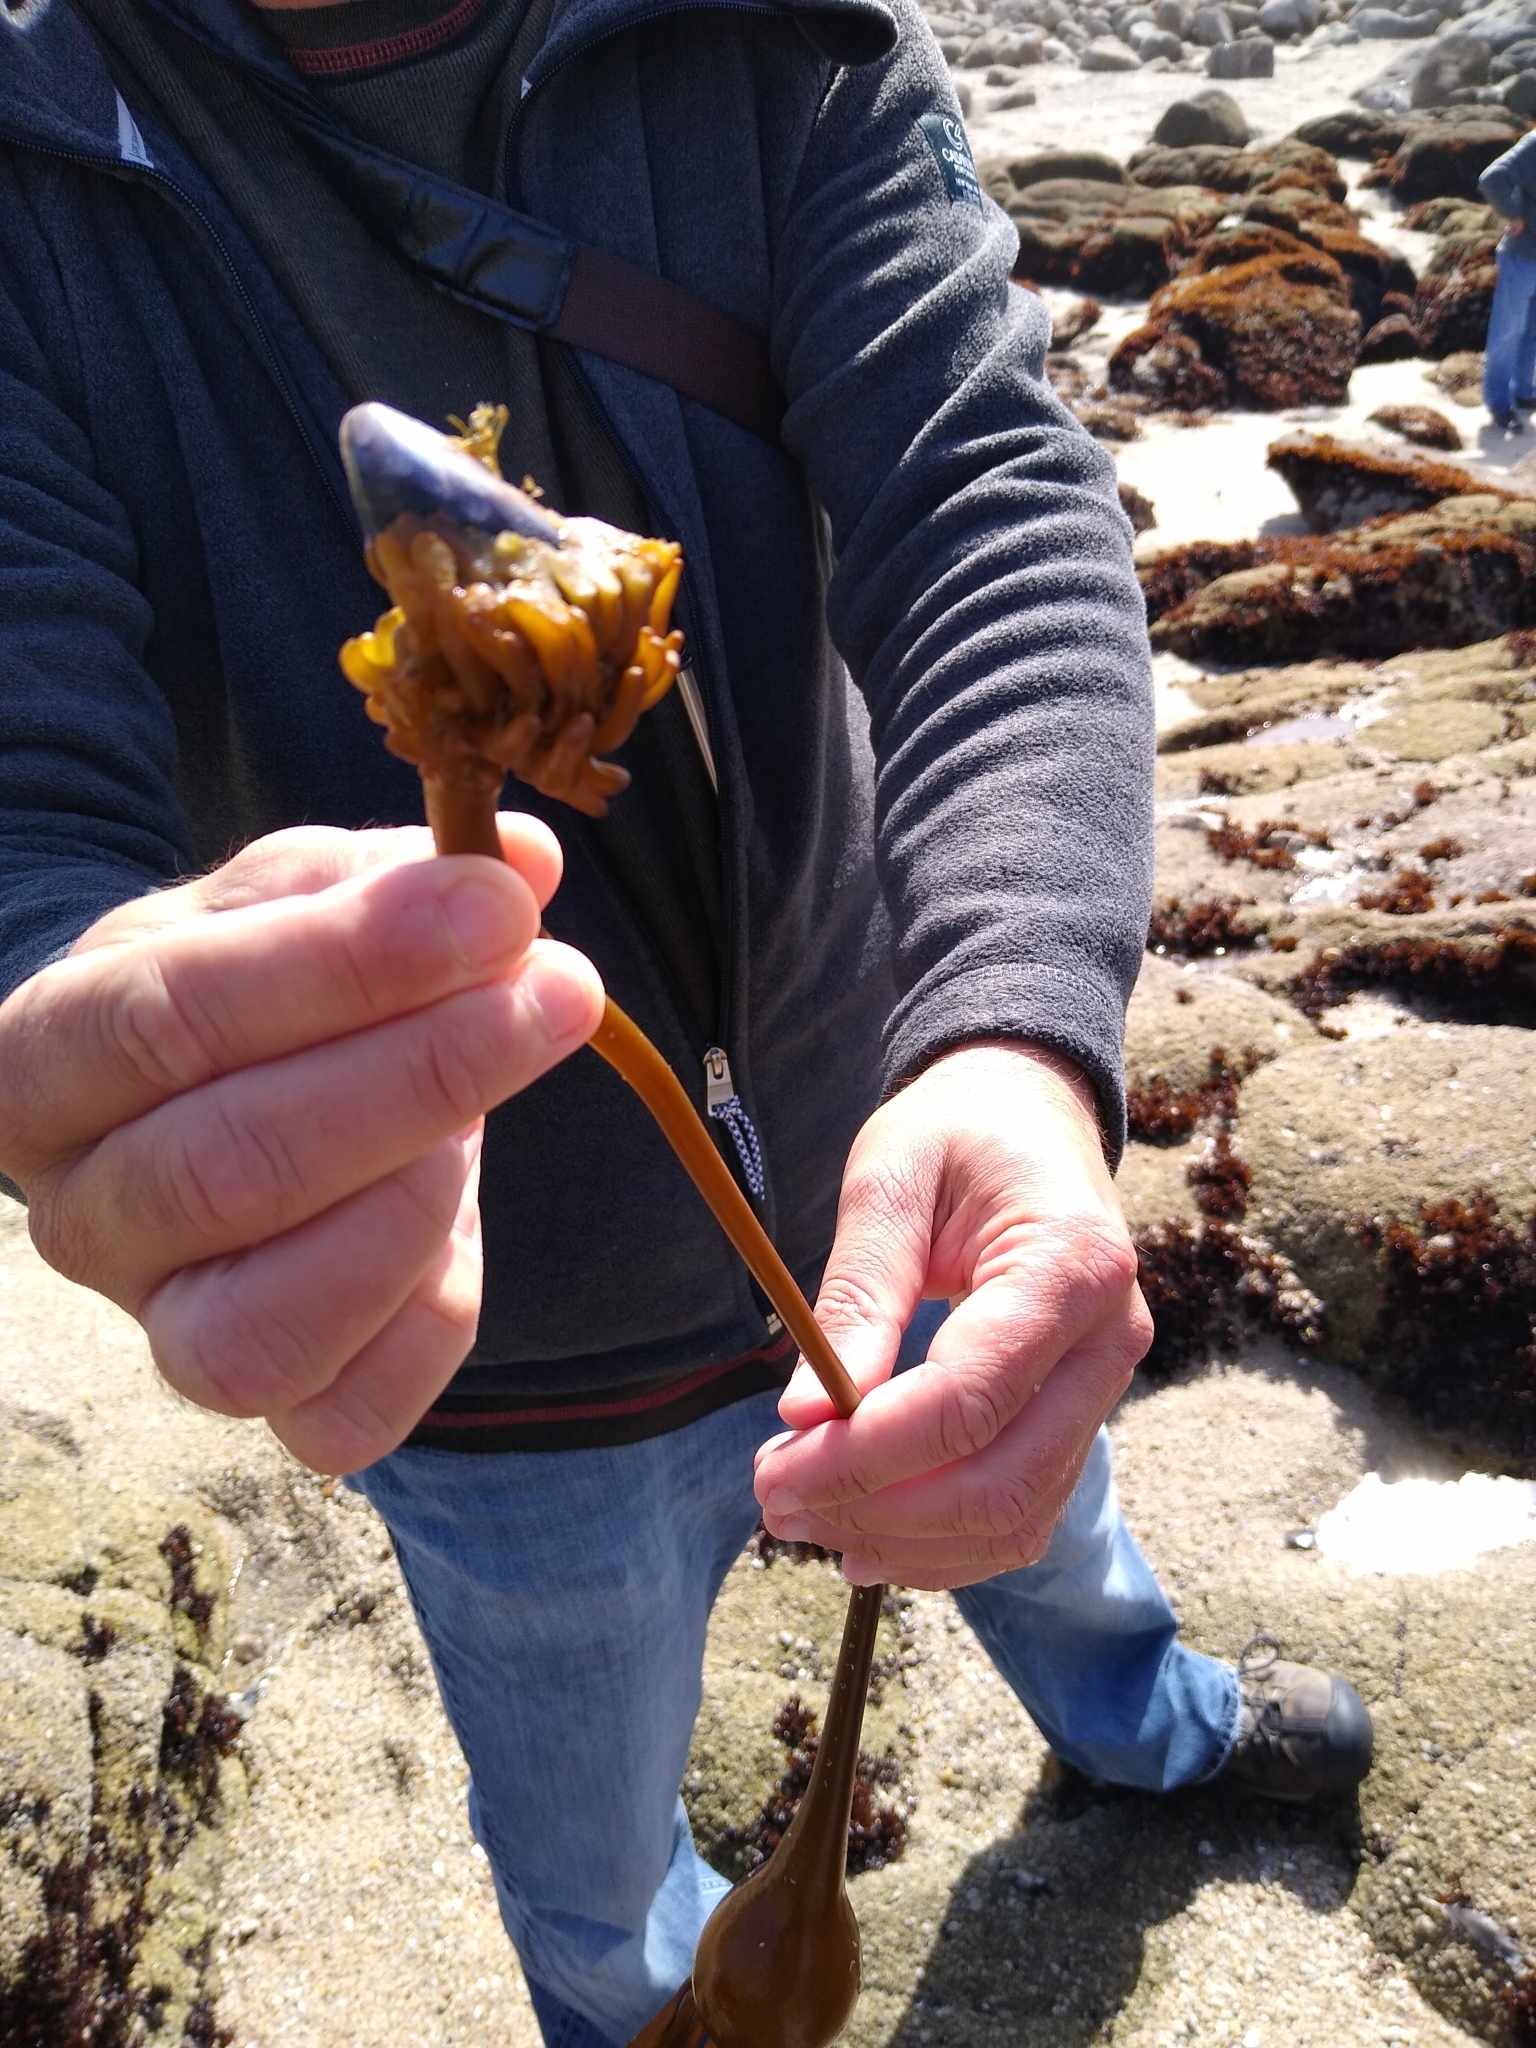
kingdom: Chromista
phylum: Ochrophyta
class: Phaeophyceae
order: Laminariales
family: Laminariaceae
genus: Nereocystis
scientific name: Nereocystis luetkeana
